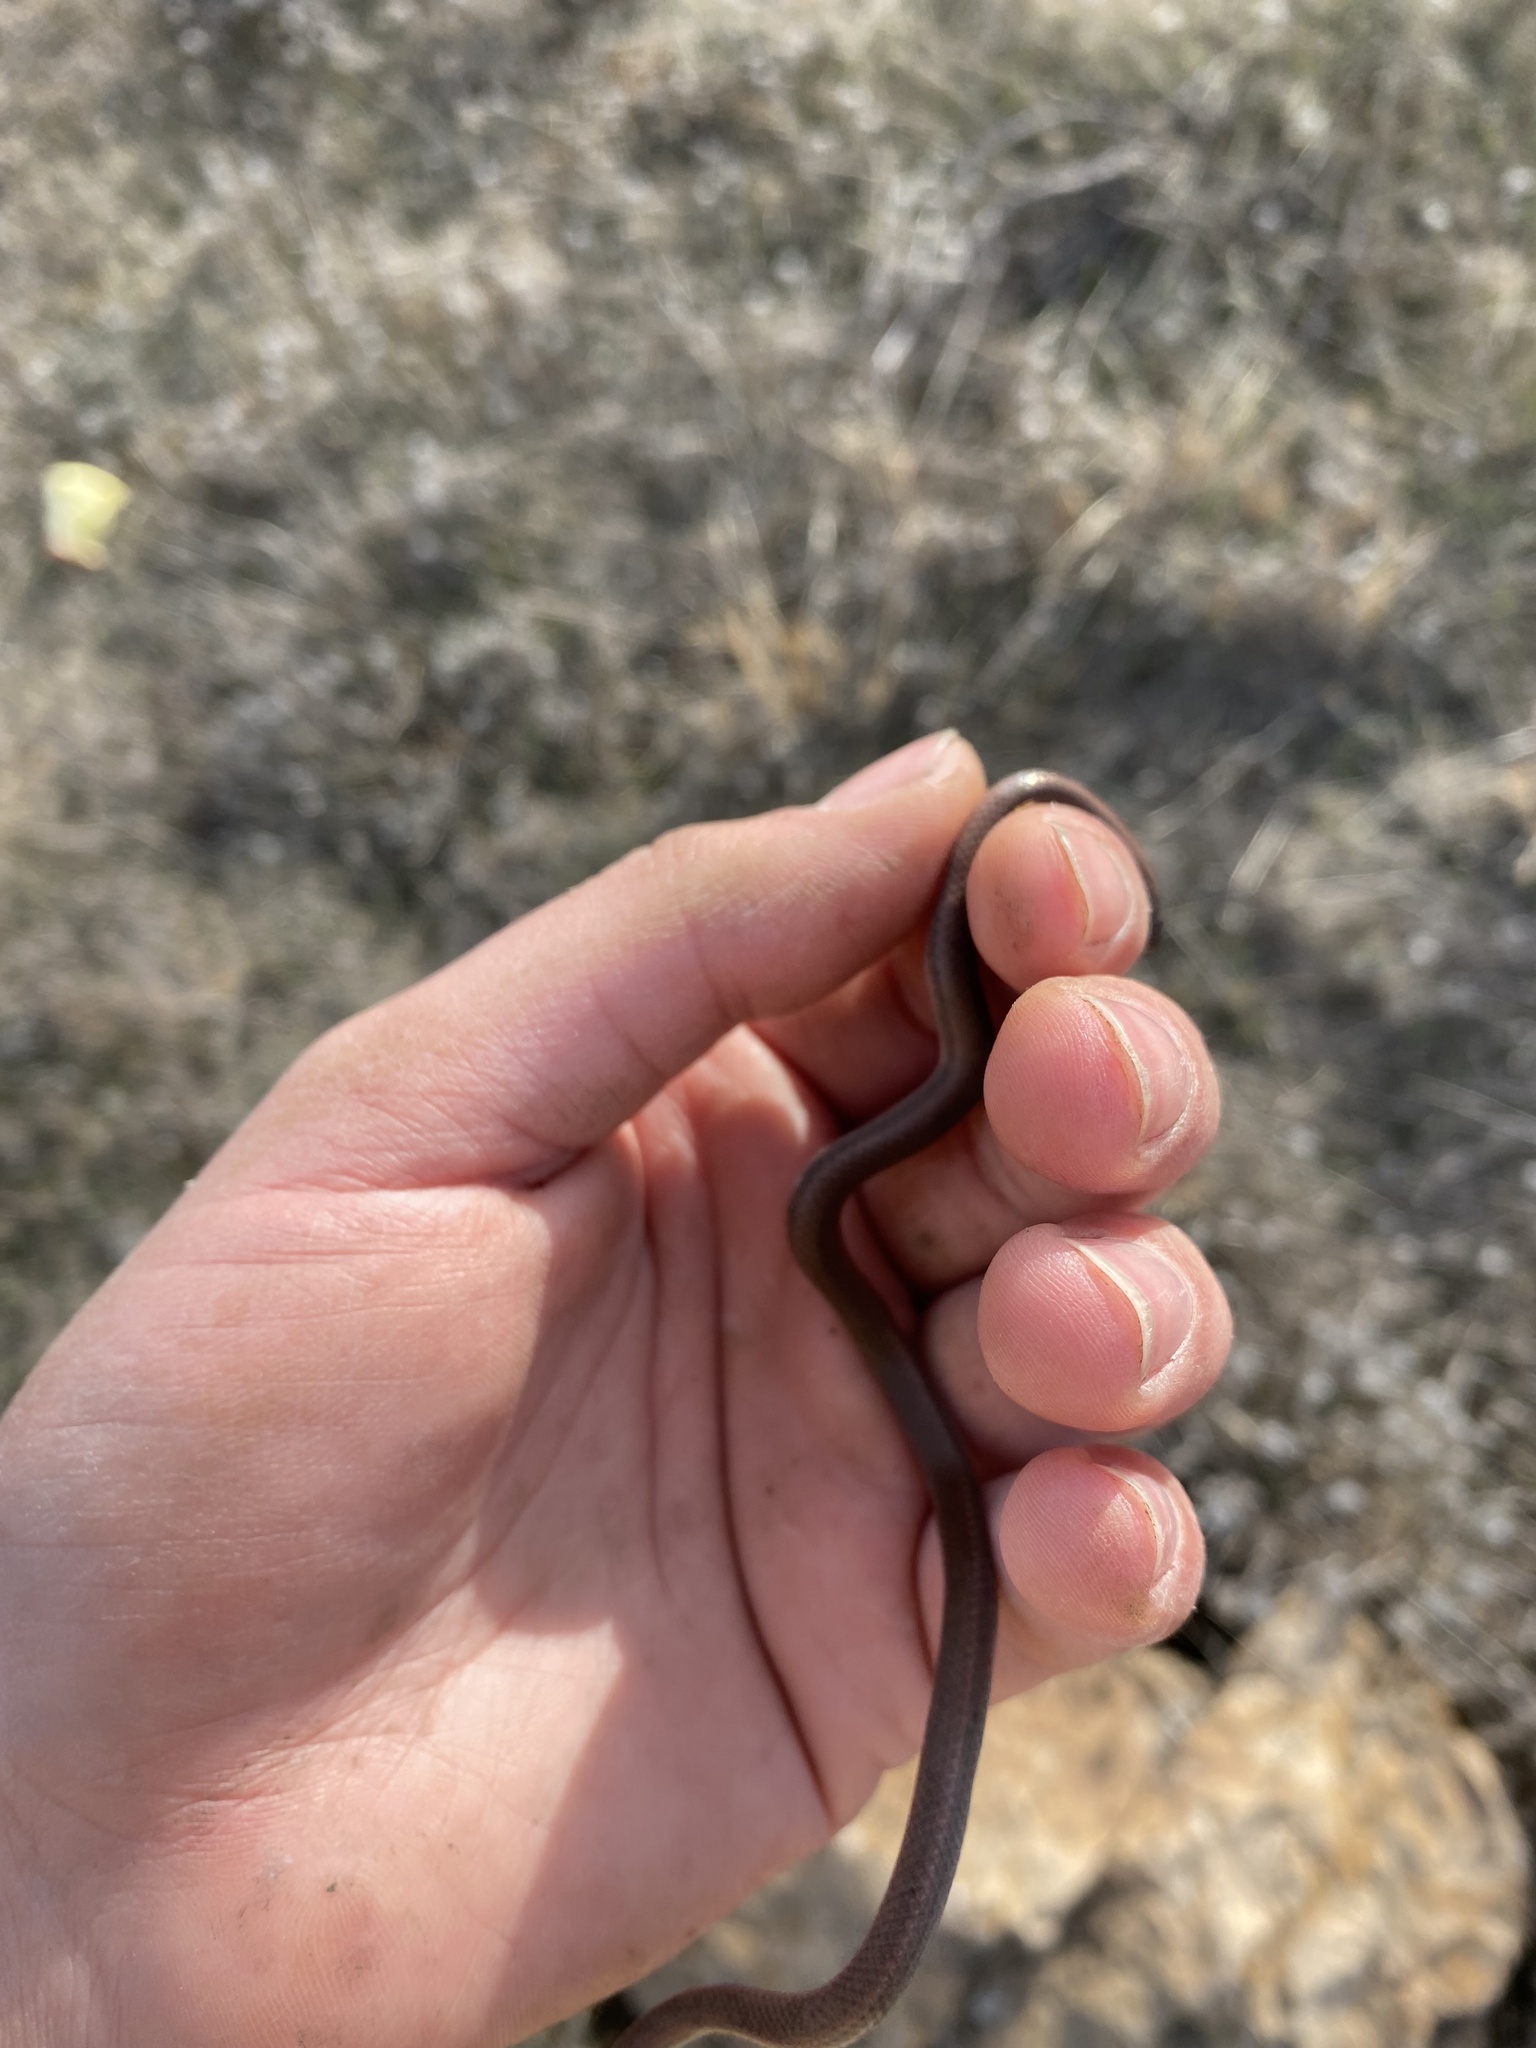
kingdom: Animalia
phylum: Chordata
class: Squamata
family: Colubridae
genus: Contia
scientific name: Contia tenuis
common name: Sharptail snake
